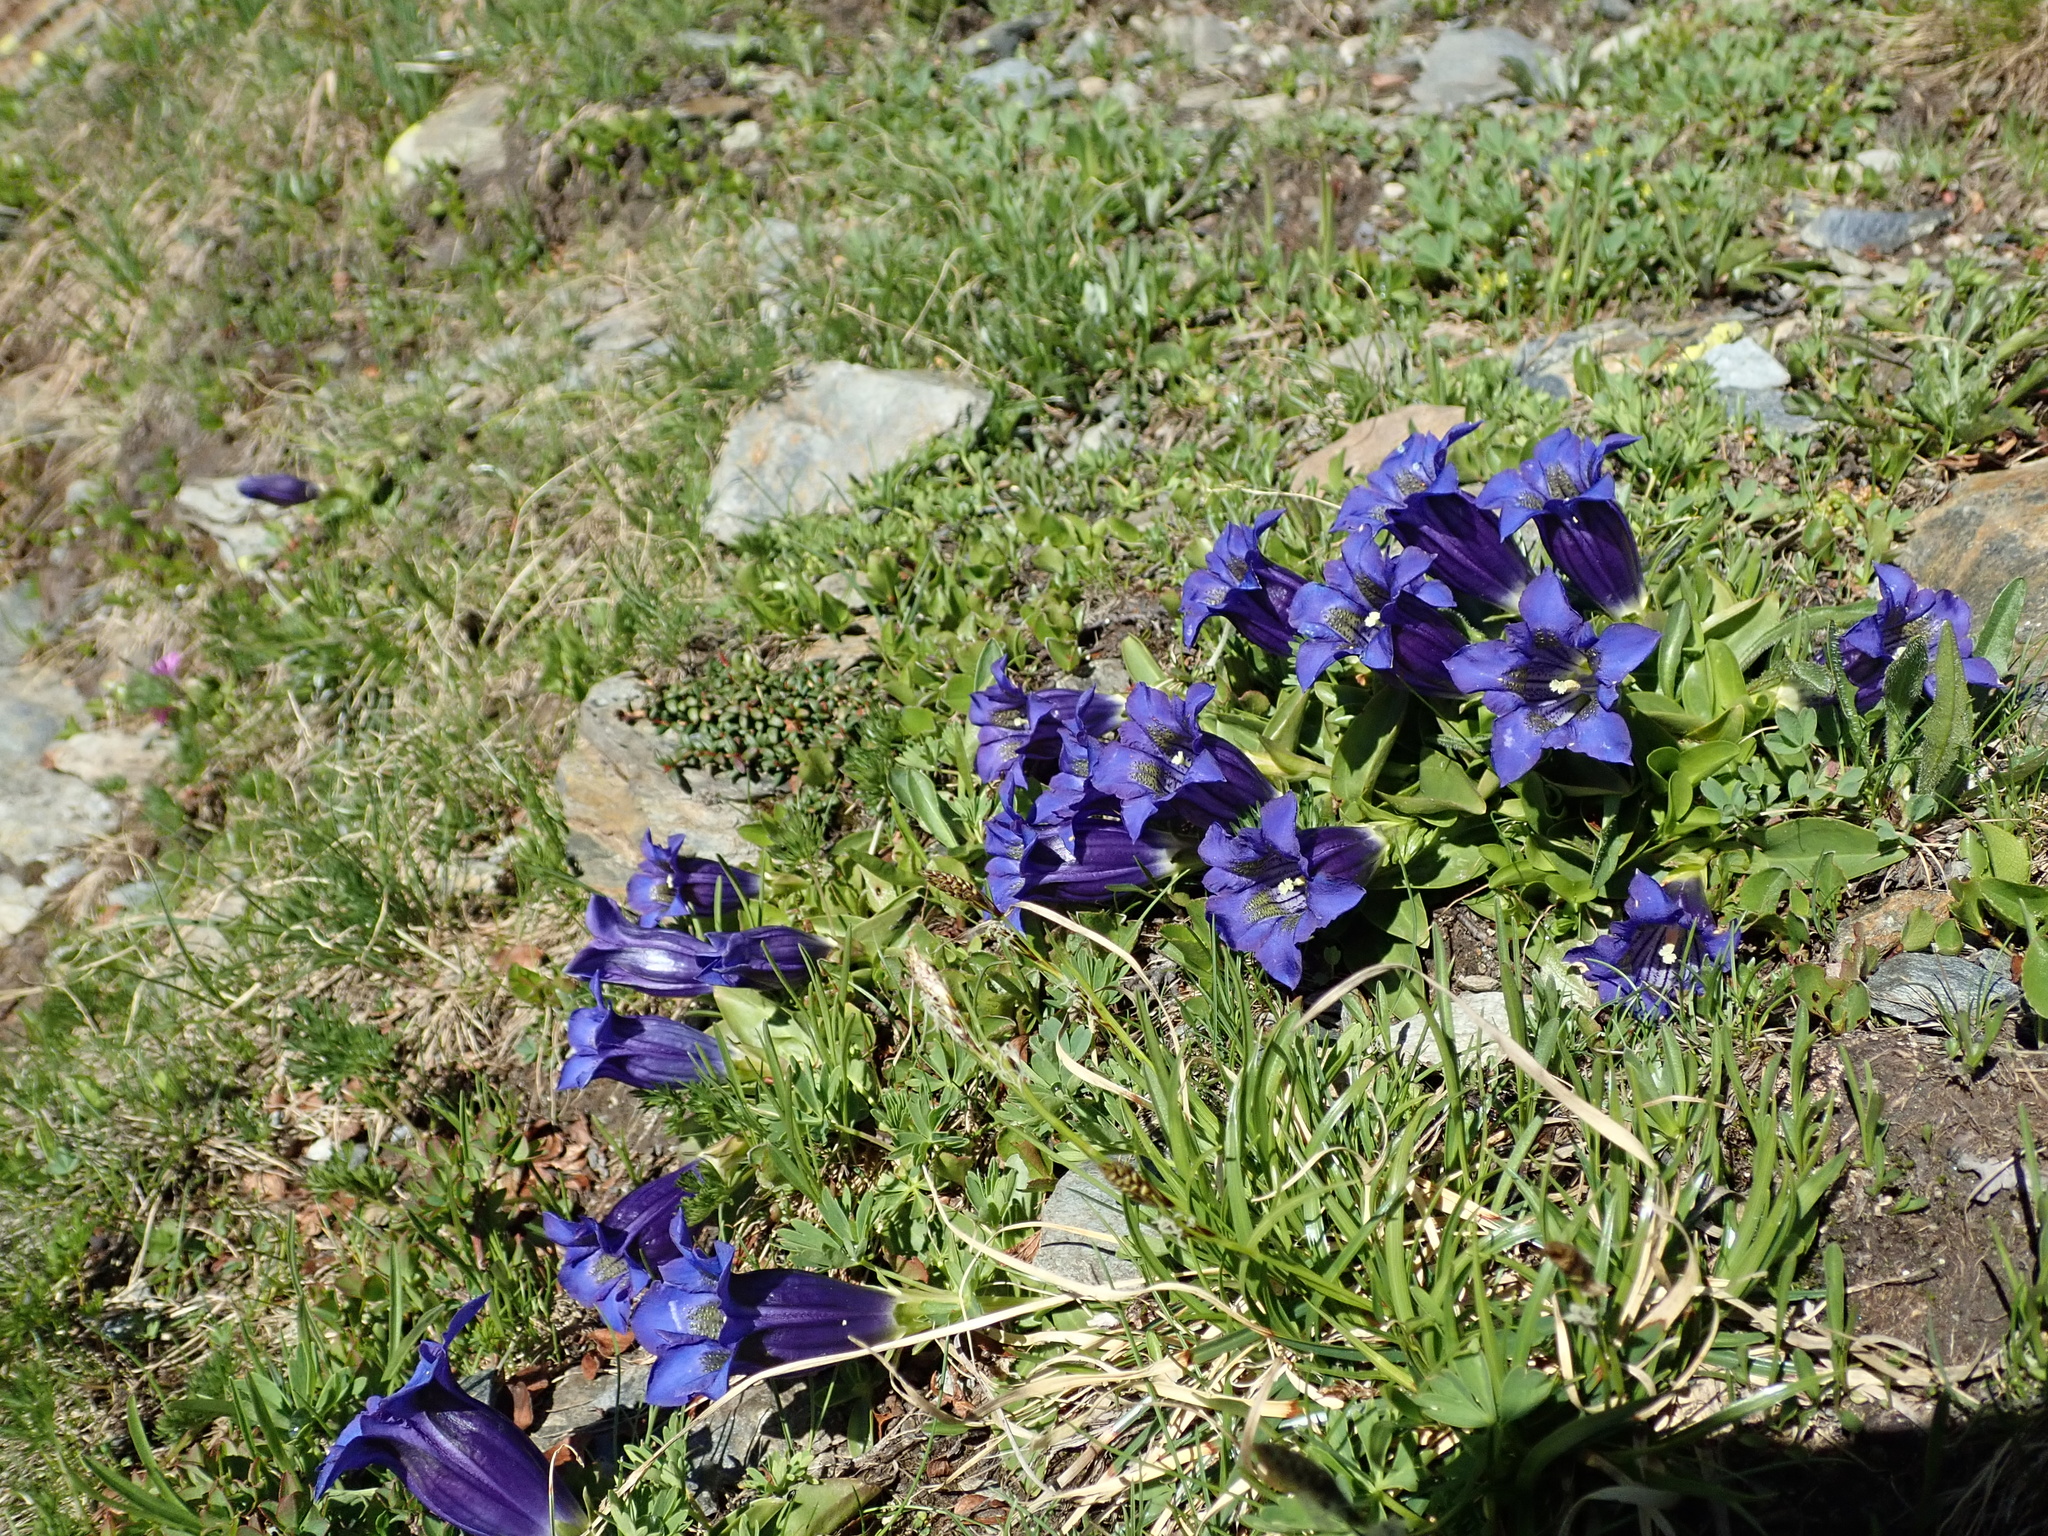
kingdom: Plantae
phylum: Tracheophyta
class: Magnoliopsida
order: Gentianales
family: Gentianaceae
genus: Gentiana
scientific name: Gentiana acaulis
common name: Trumpet gentian
